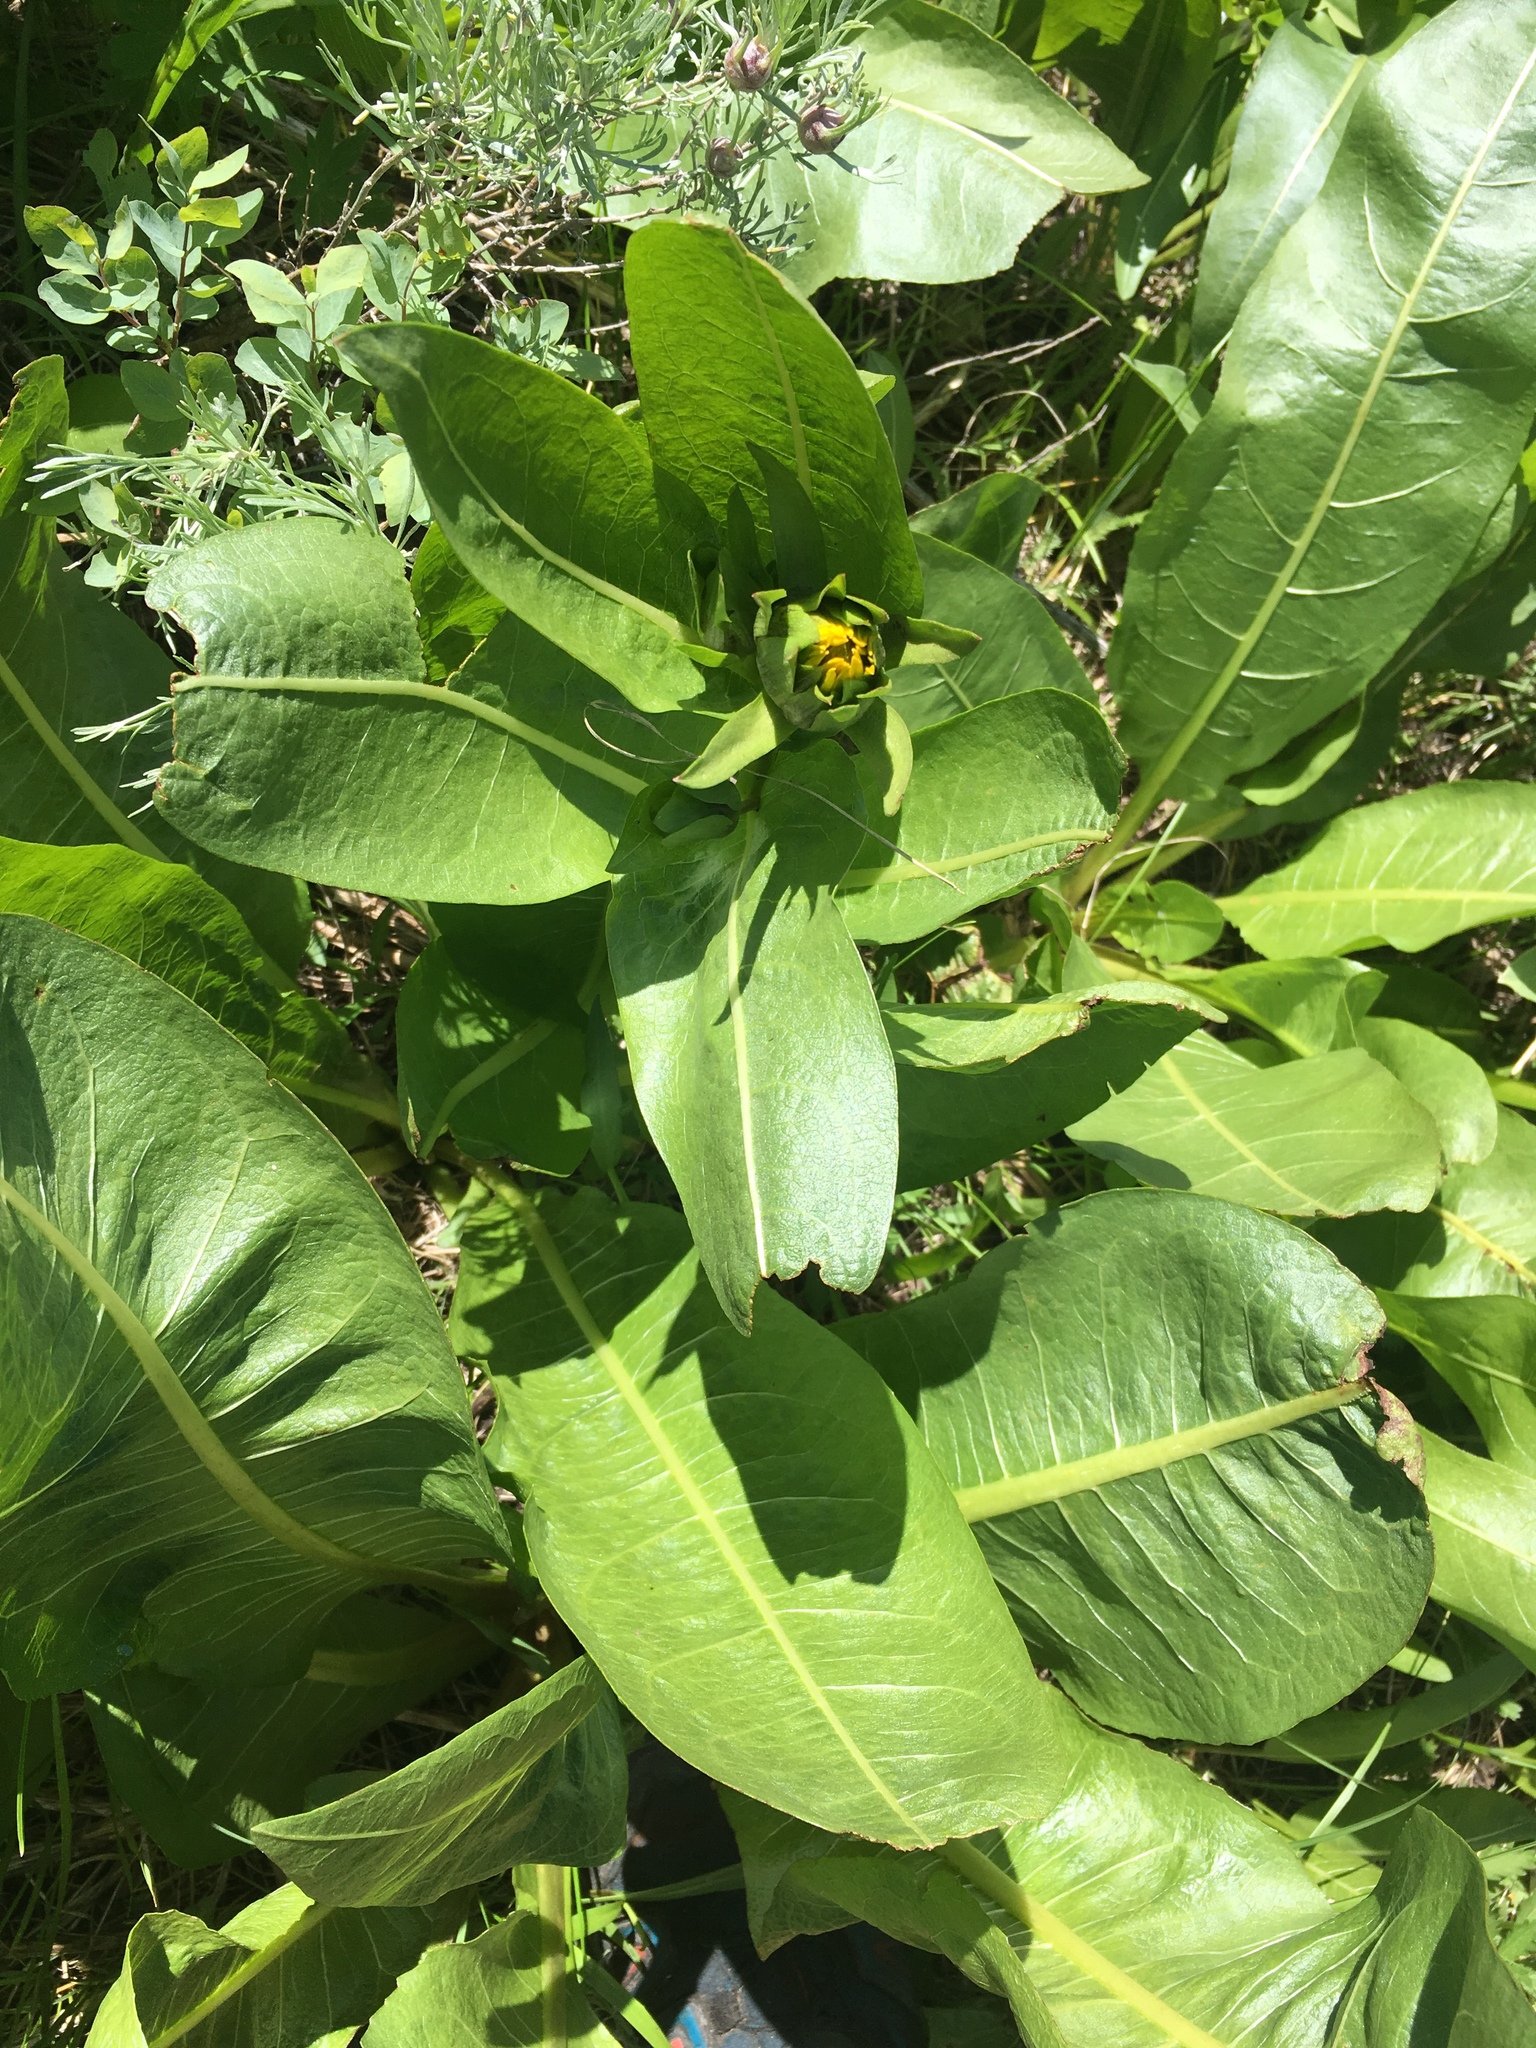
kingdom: Plantae
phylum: Tracheophyta
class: Magnoliopsida
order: Asterales
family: Asteraceae
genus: Wyethia
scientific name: Wyethia amplexicaulis
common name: Northern mule's-ears
